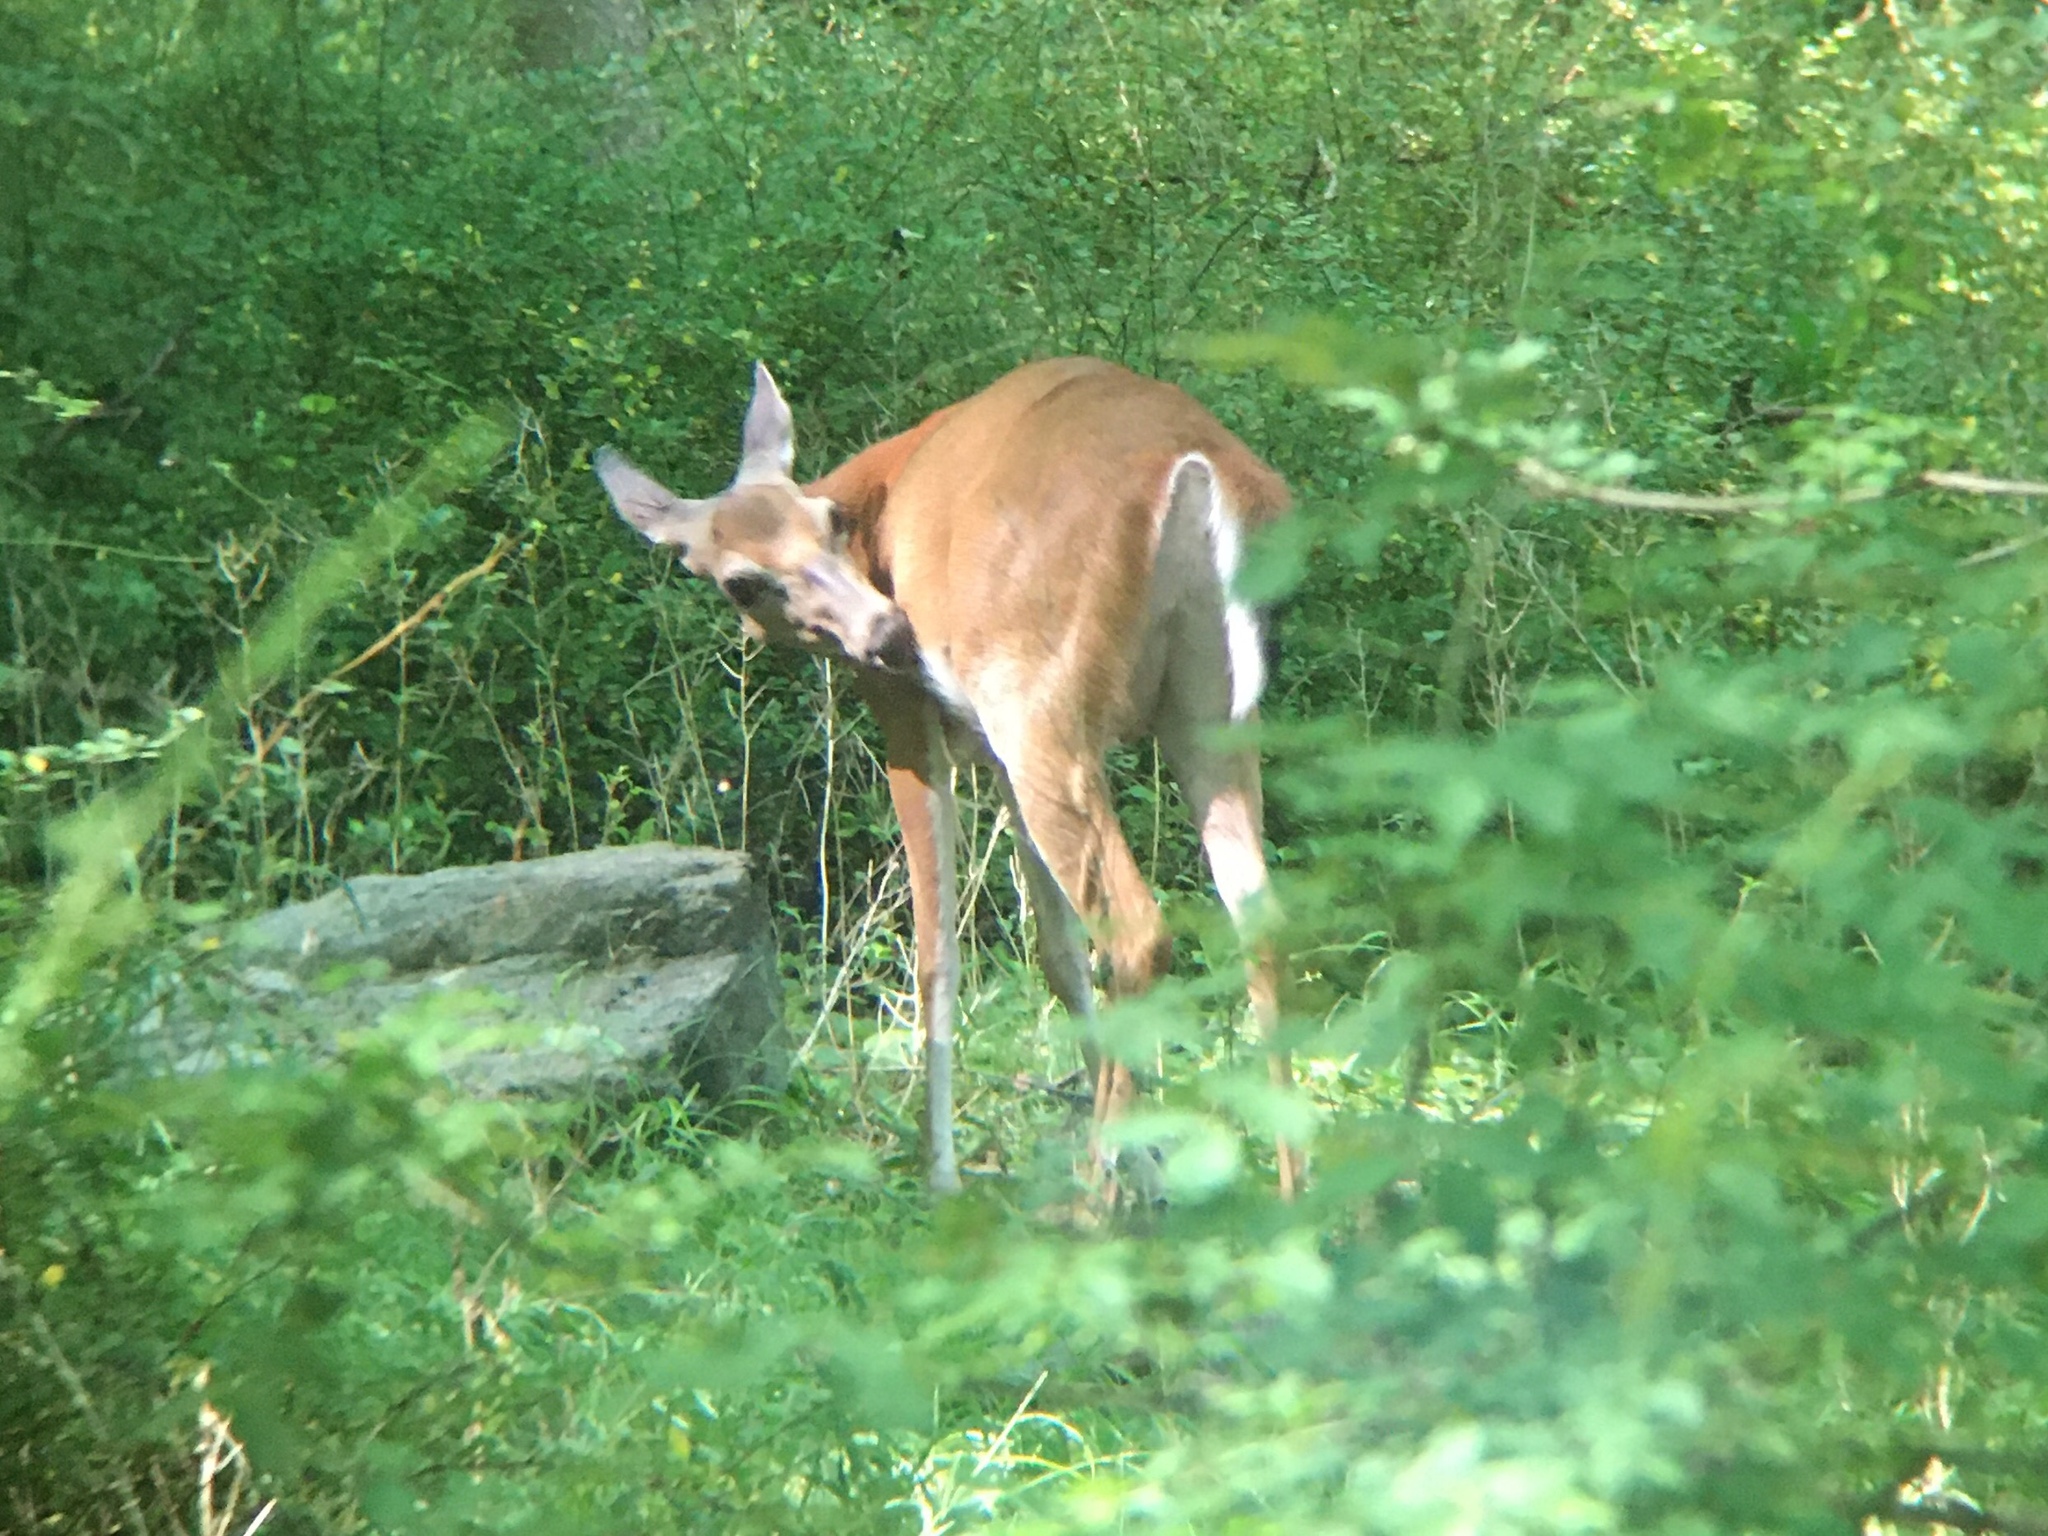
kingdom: Animalia
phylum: Chordata
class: Mammalia
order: Artiodactyla
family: Cervidae
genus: Odocoileus
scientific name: Odocoileus virginianus
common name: White-tailed deer
